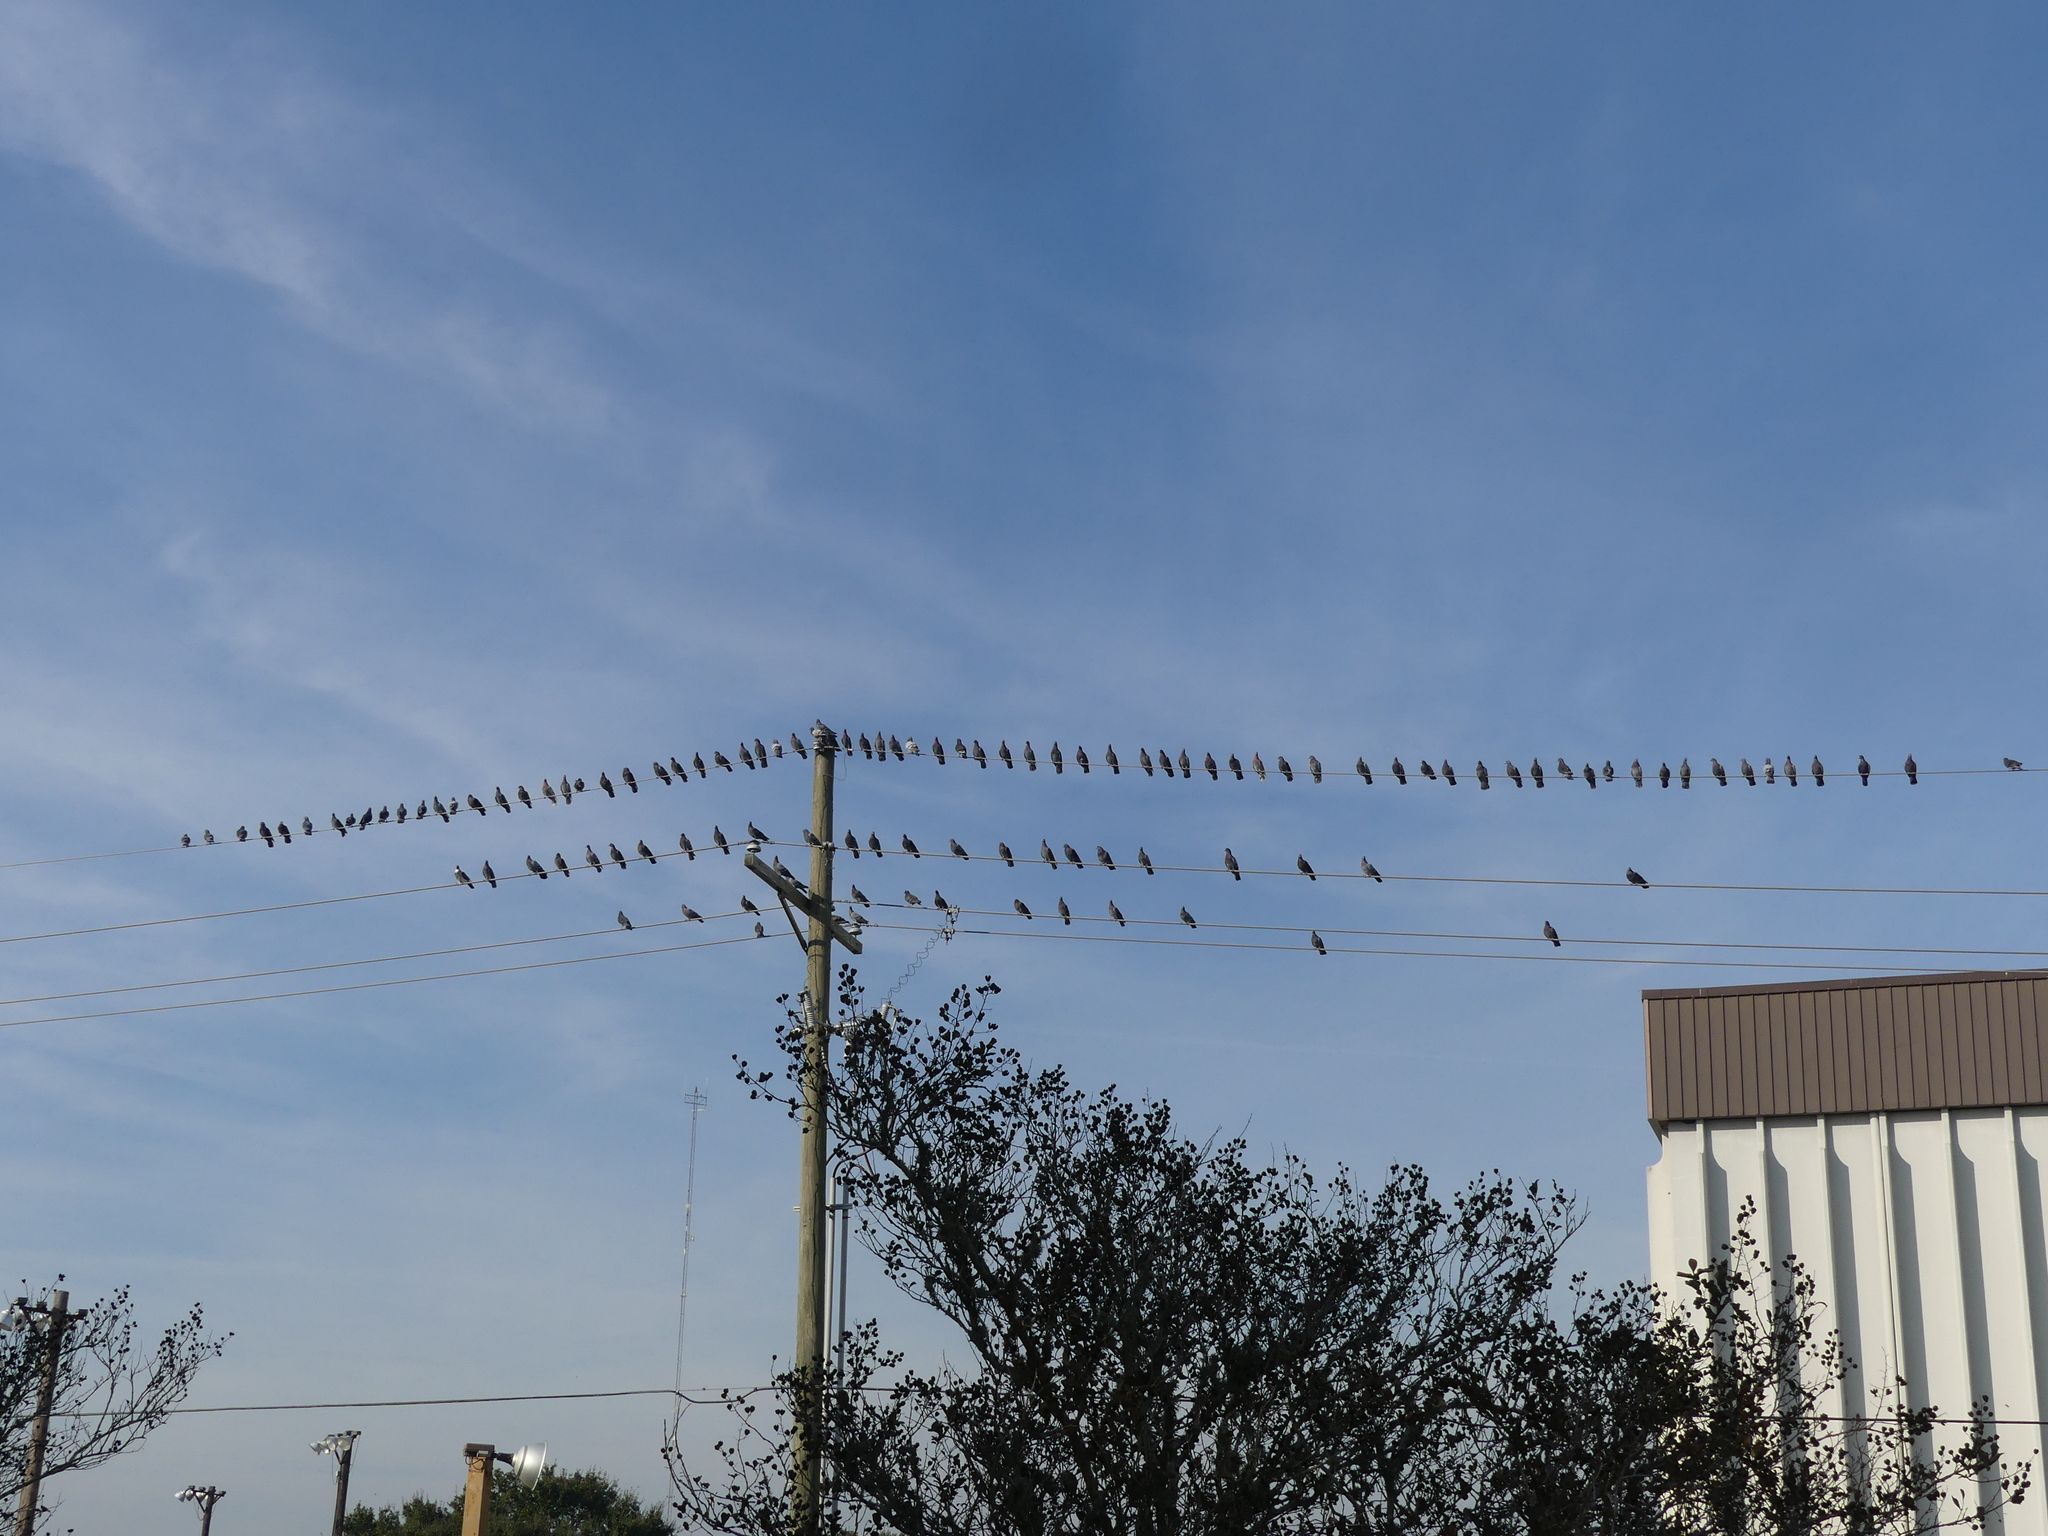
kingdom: Animalia
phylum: Chordata
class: Aves
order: Columbiformes
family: Columbidae
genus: Columba
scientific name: Columba livia
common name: Rock pigeon
